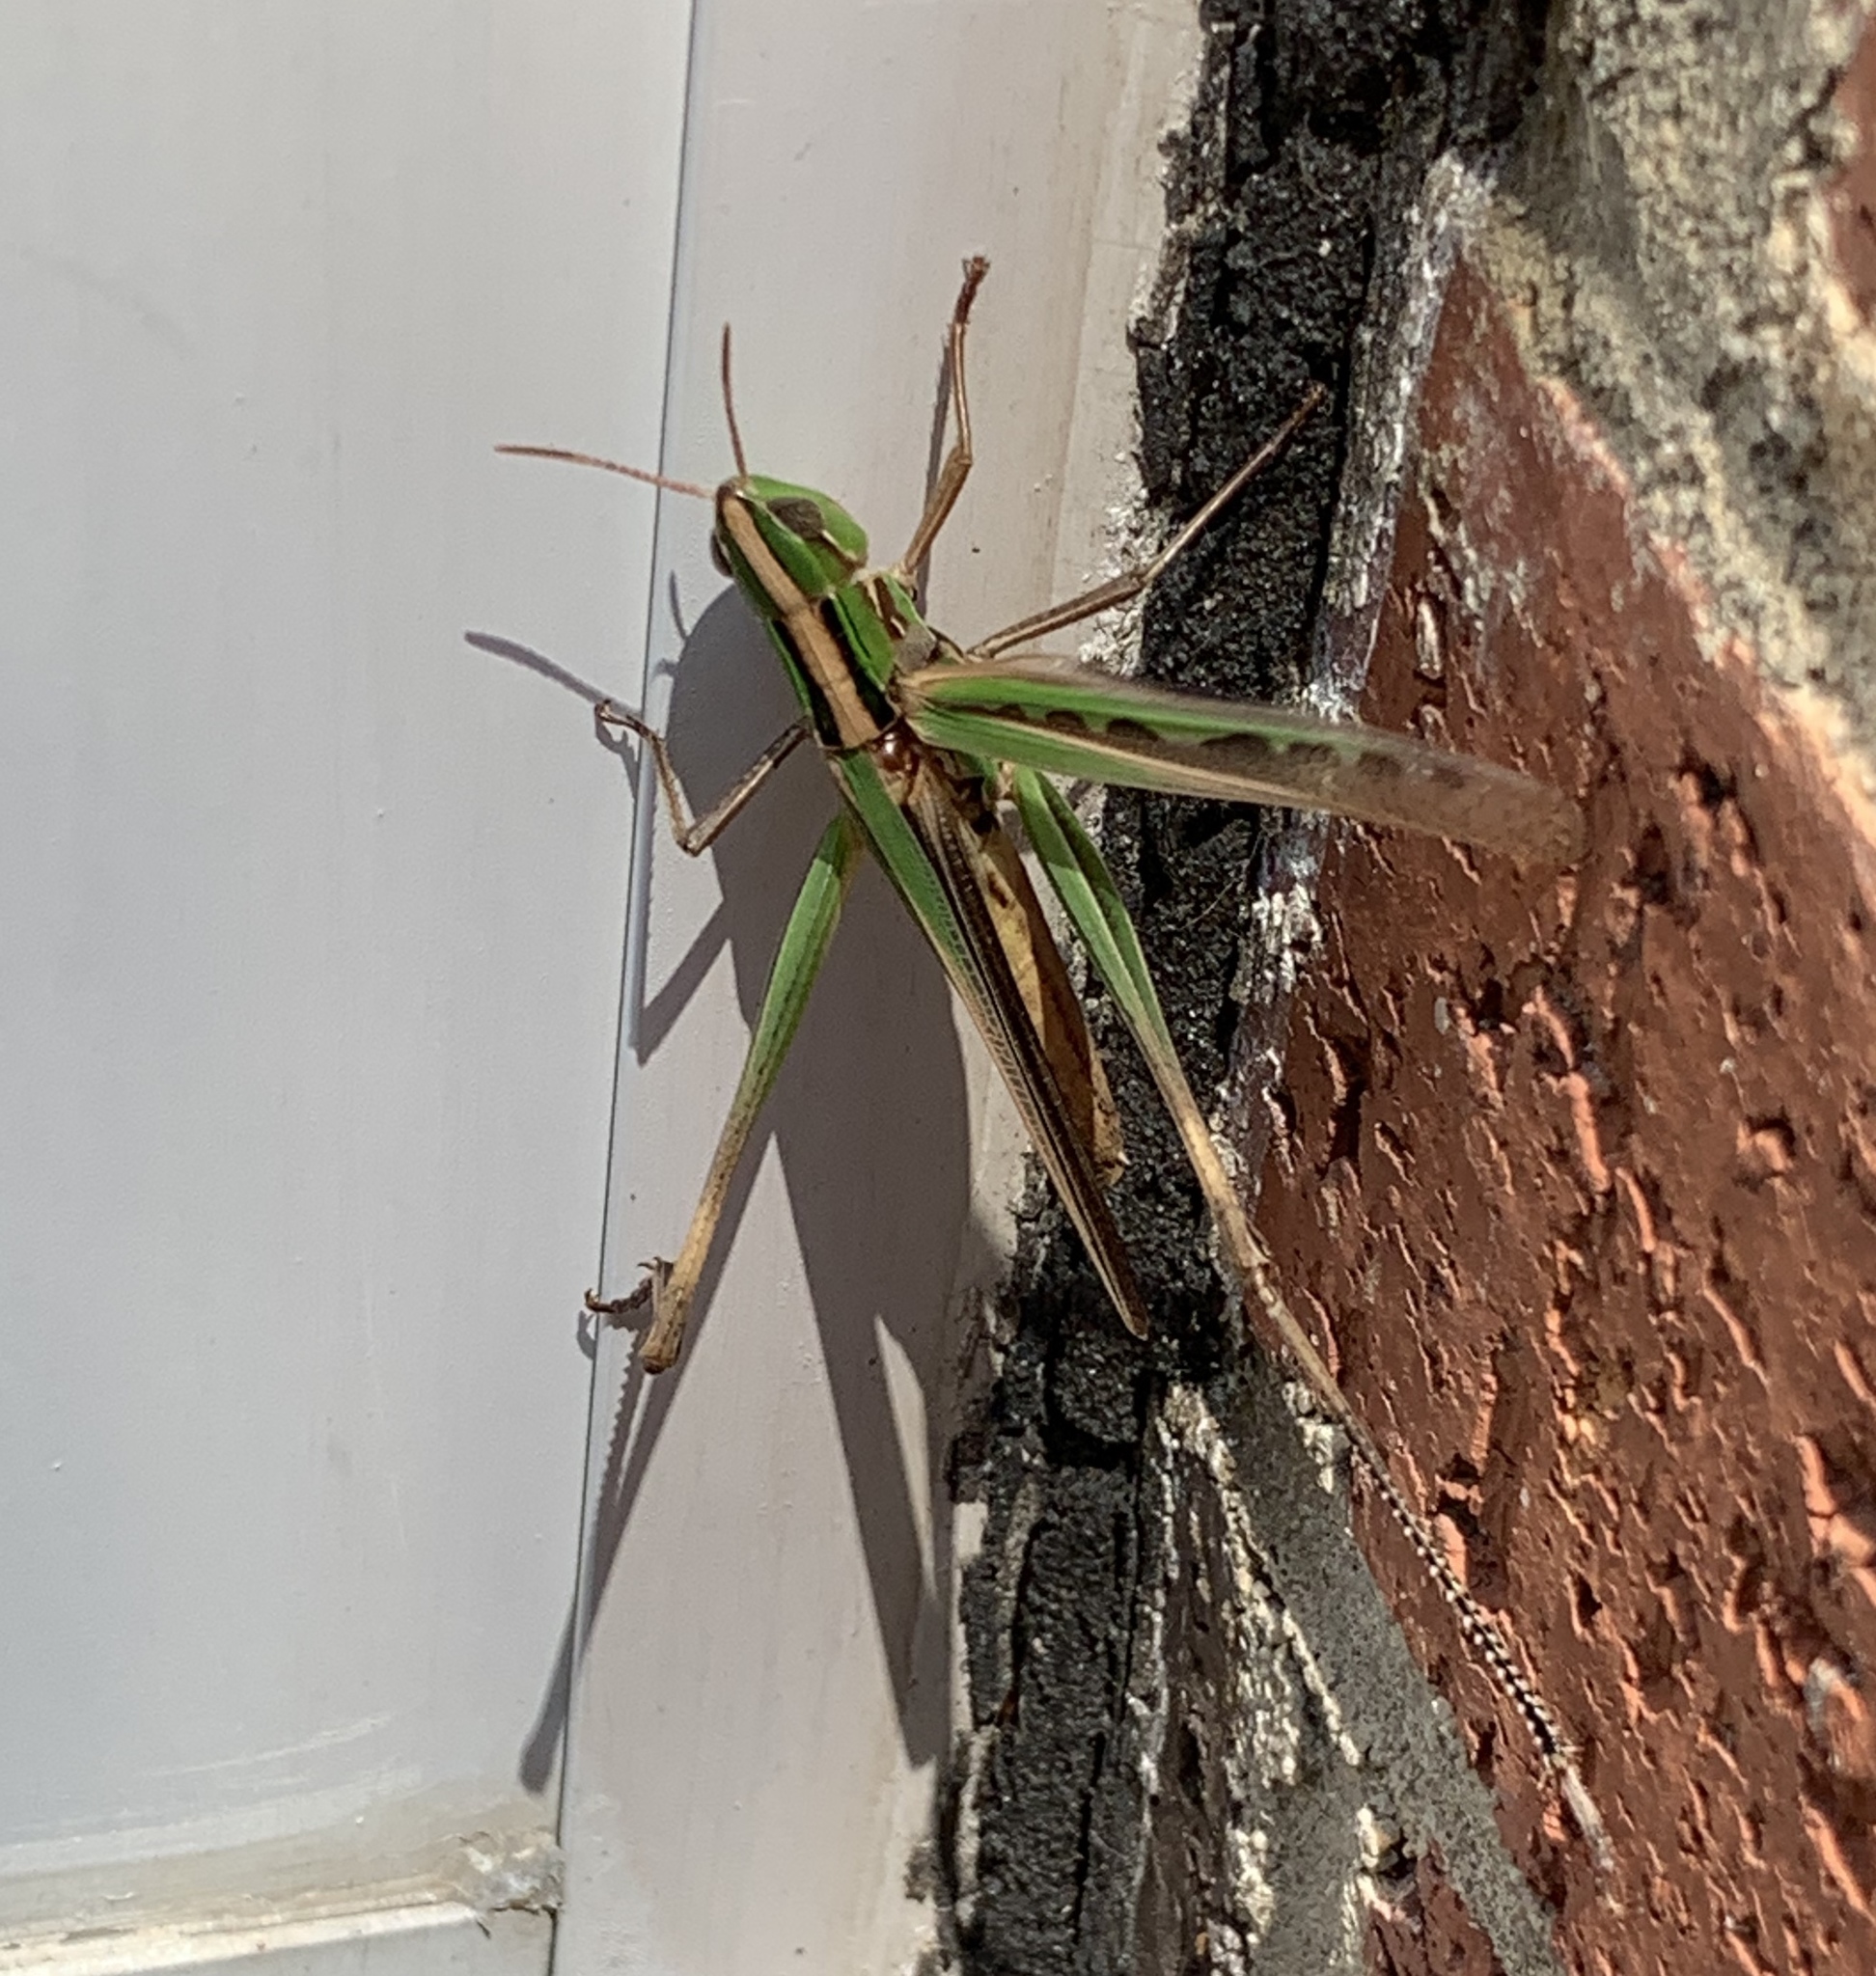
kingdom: Animalia
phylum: Arthropoda
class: Insecta
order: Orthoptera
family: Acrididae
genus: Syrbula
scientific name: Syrbula admirabilis
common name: Handsome grasshopper
